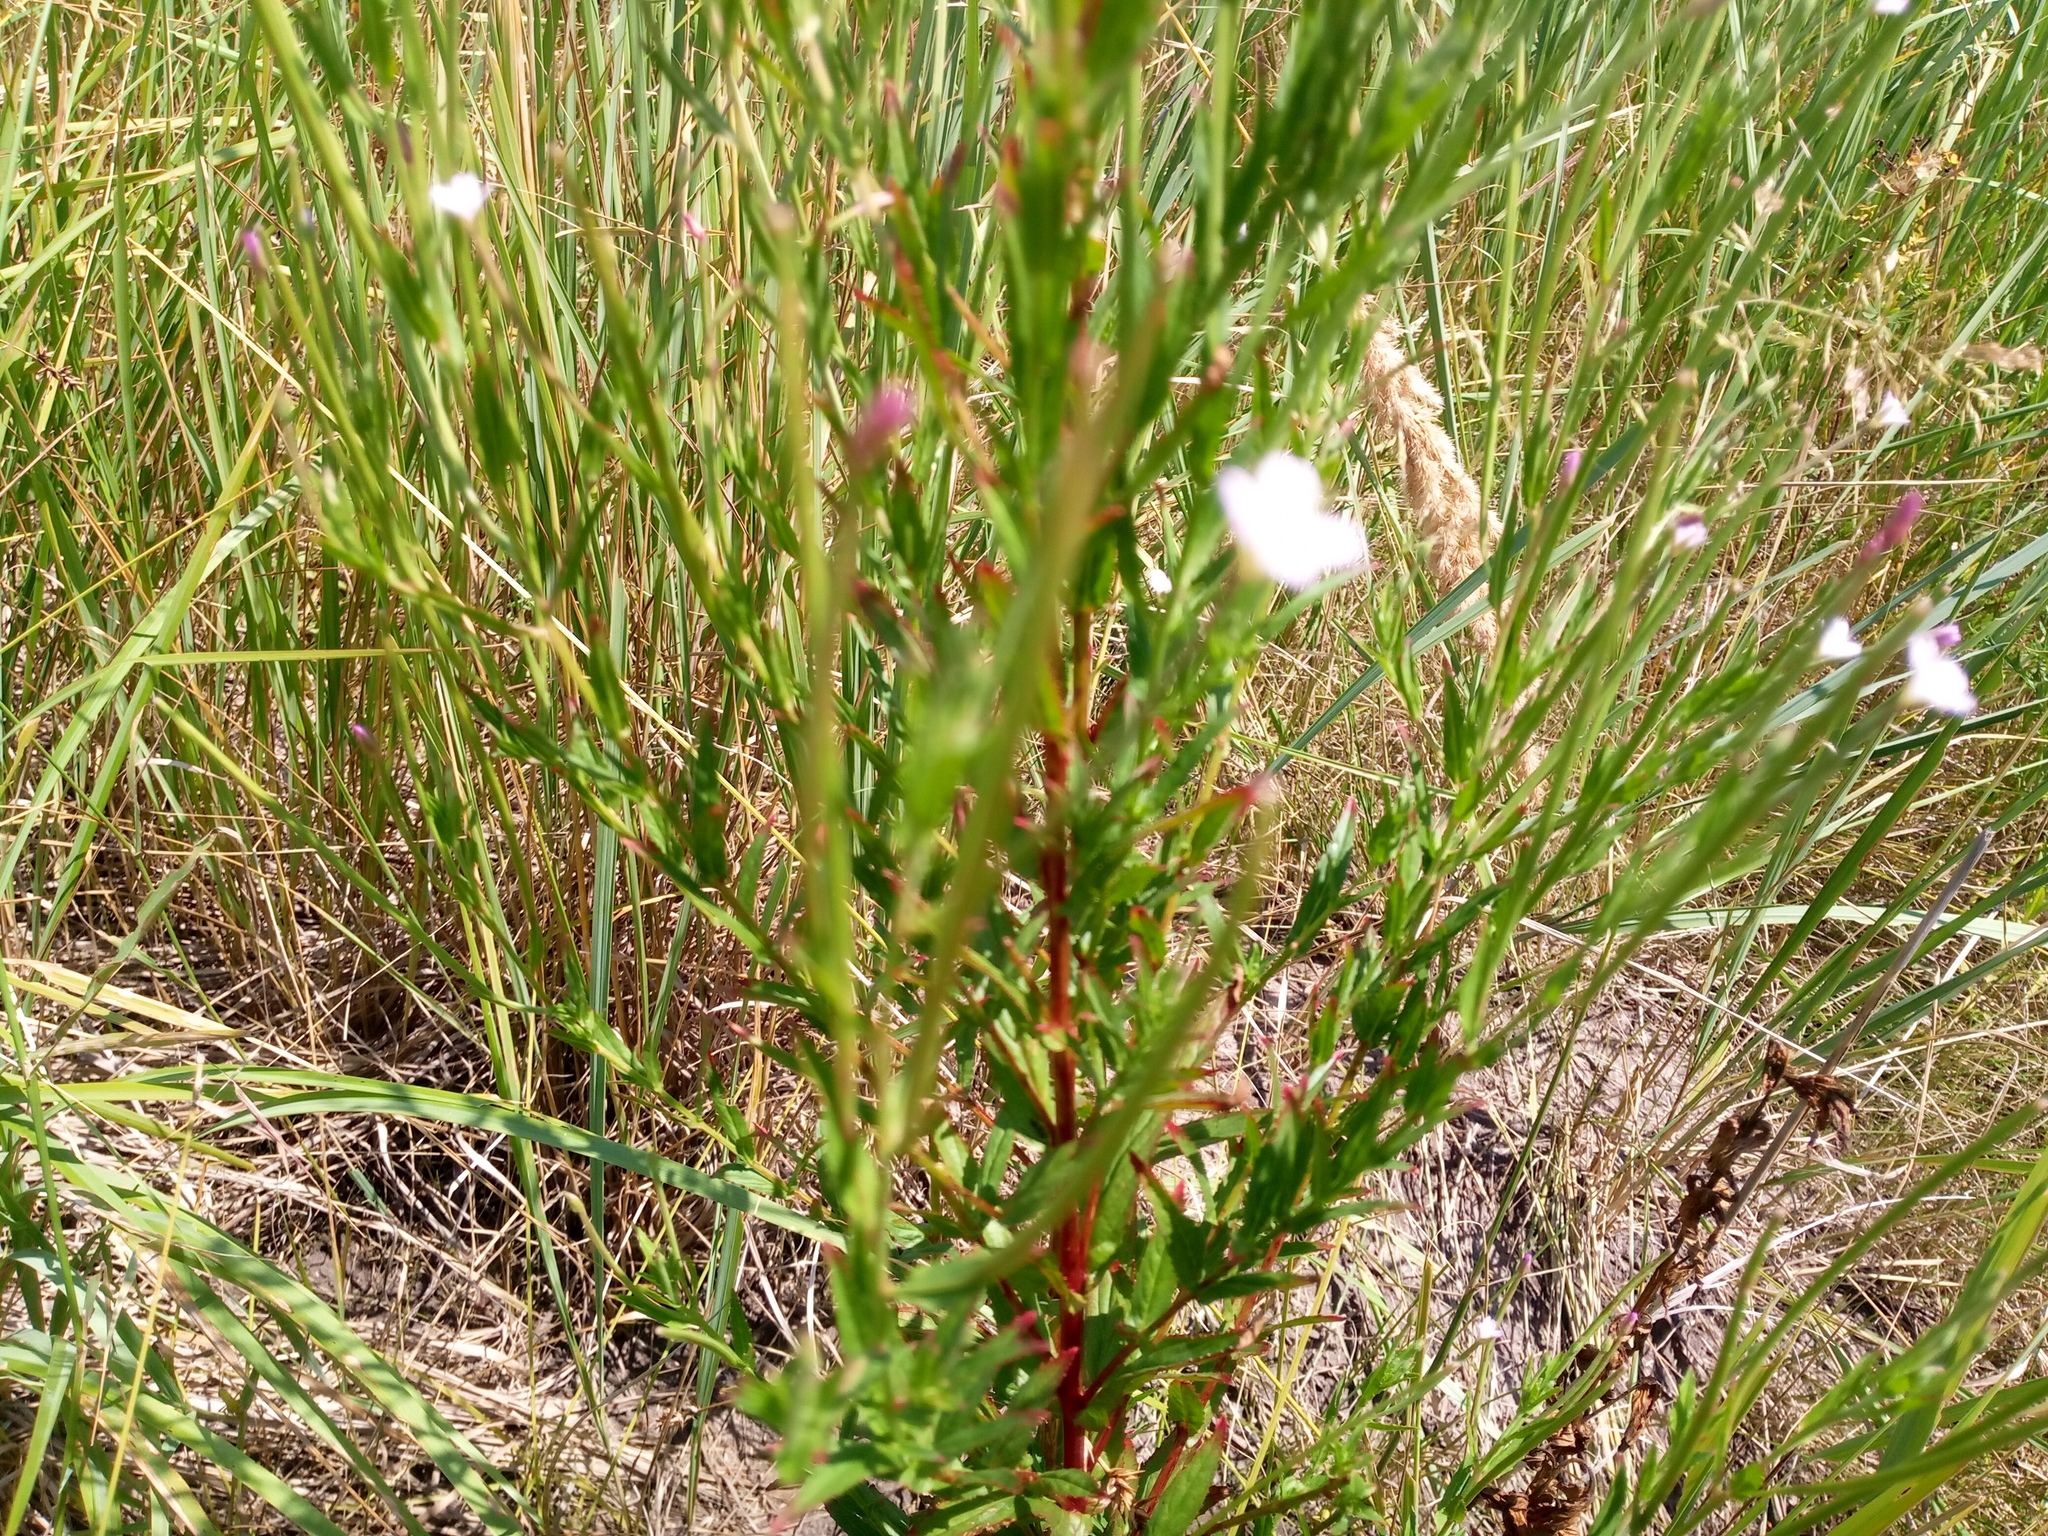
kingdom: Plantae
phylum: Tracheophyta
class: Magnoliopsida
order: Myrtales
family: Onagraceae
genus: Epilobium
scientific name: Epilobium tetragonum
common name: Square-stemmed willowherb
